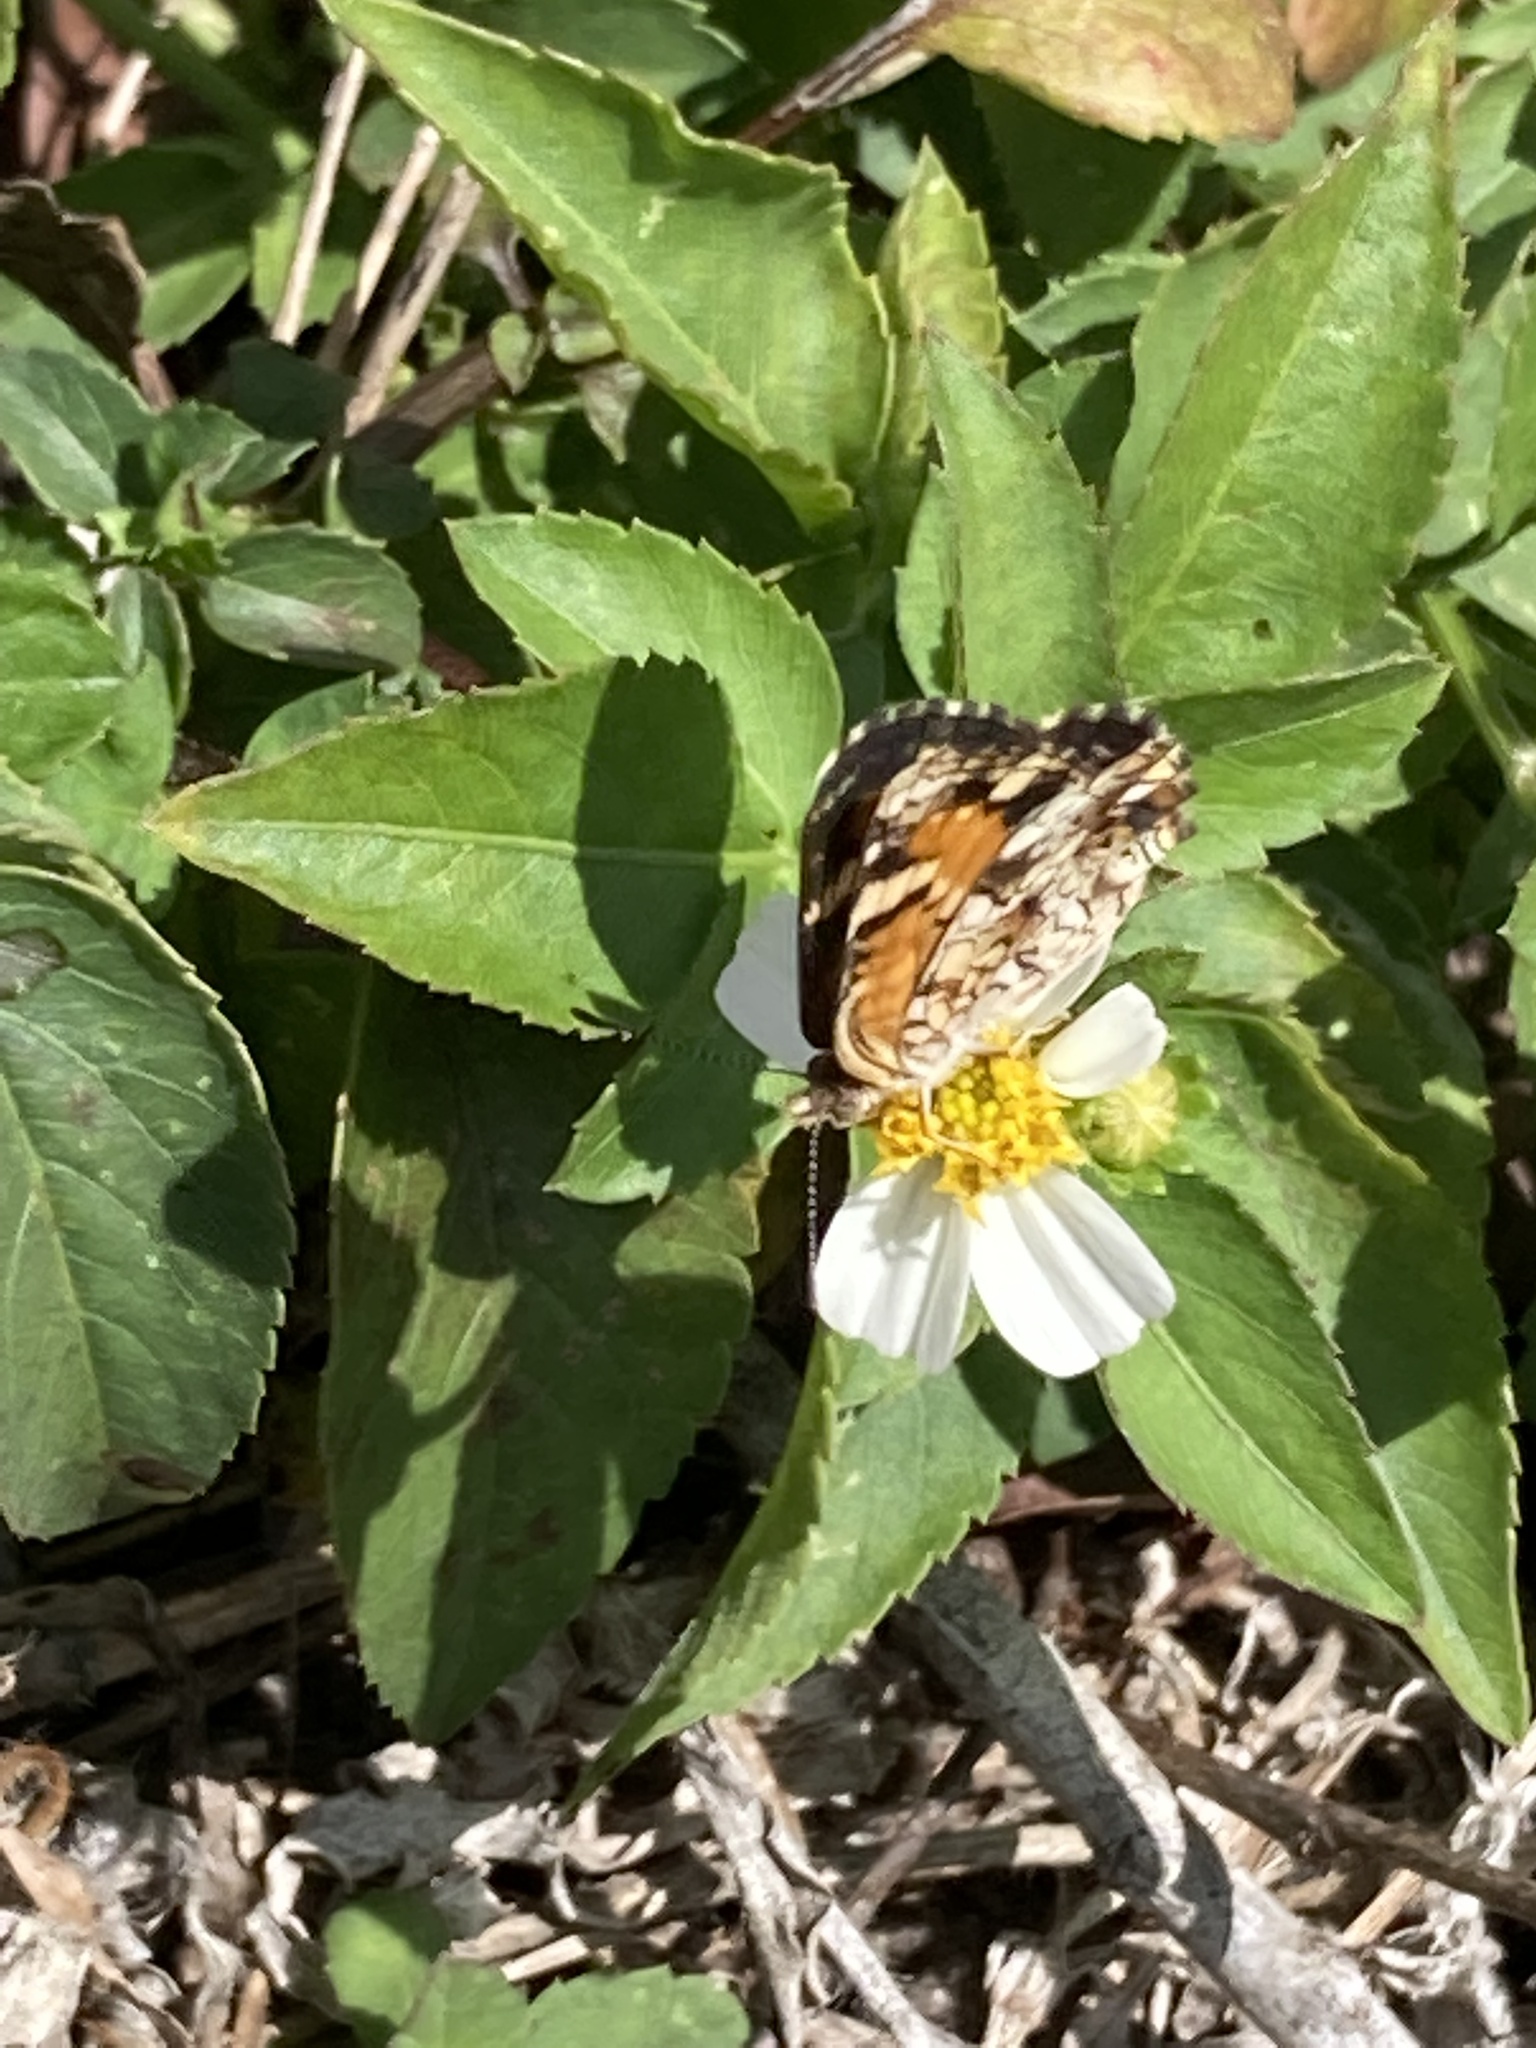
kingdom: Animalia
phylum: Arthropoda
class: Insecta
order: Lepidoptera
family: Nymphalidae
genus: Phyciodes
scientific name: Phyciodes phaon
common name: Phaon crescent
